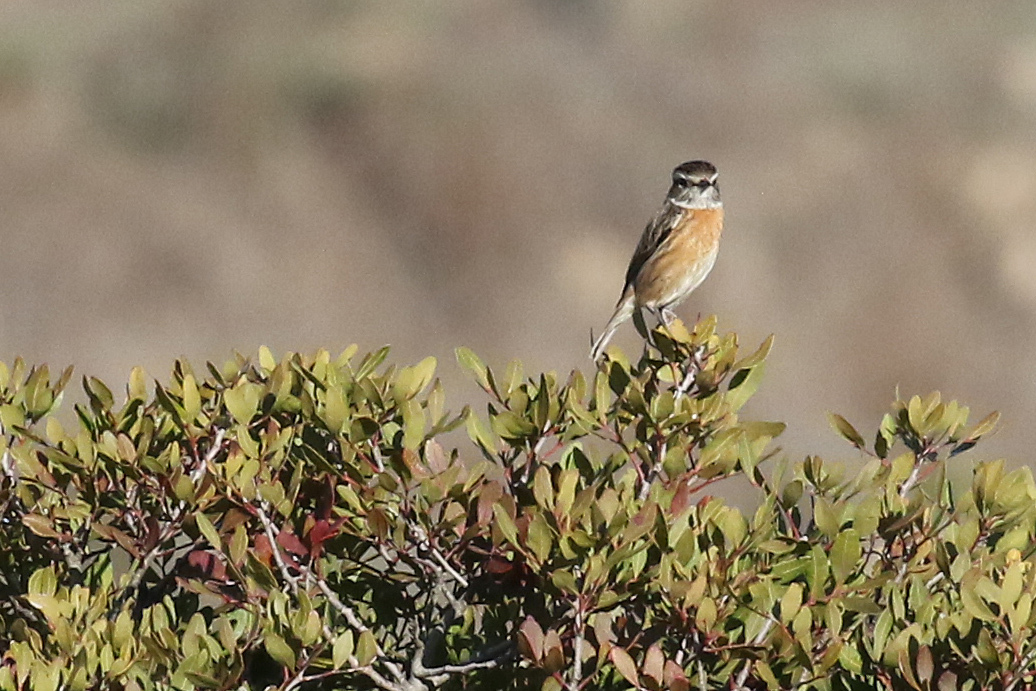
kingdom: Animalia
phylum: Chordata
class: Aves
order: Passeriformes
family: Muscicapidae
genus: Saxicola
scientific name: Saxicola rubicola
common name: European stonechat
